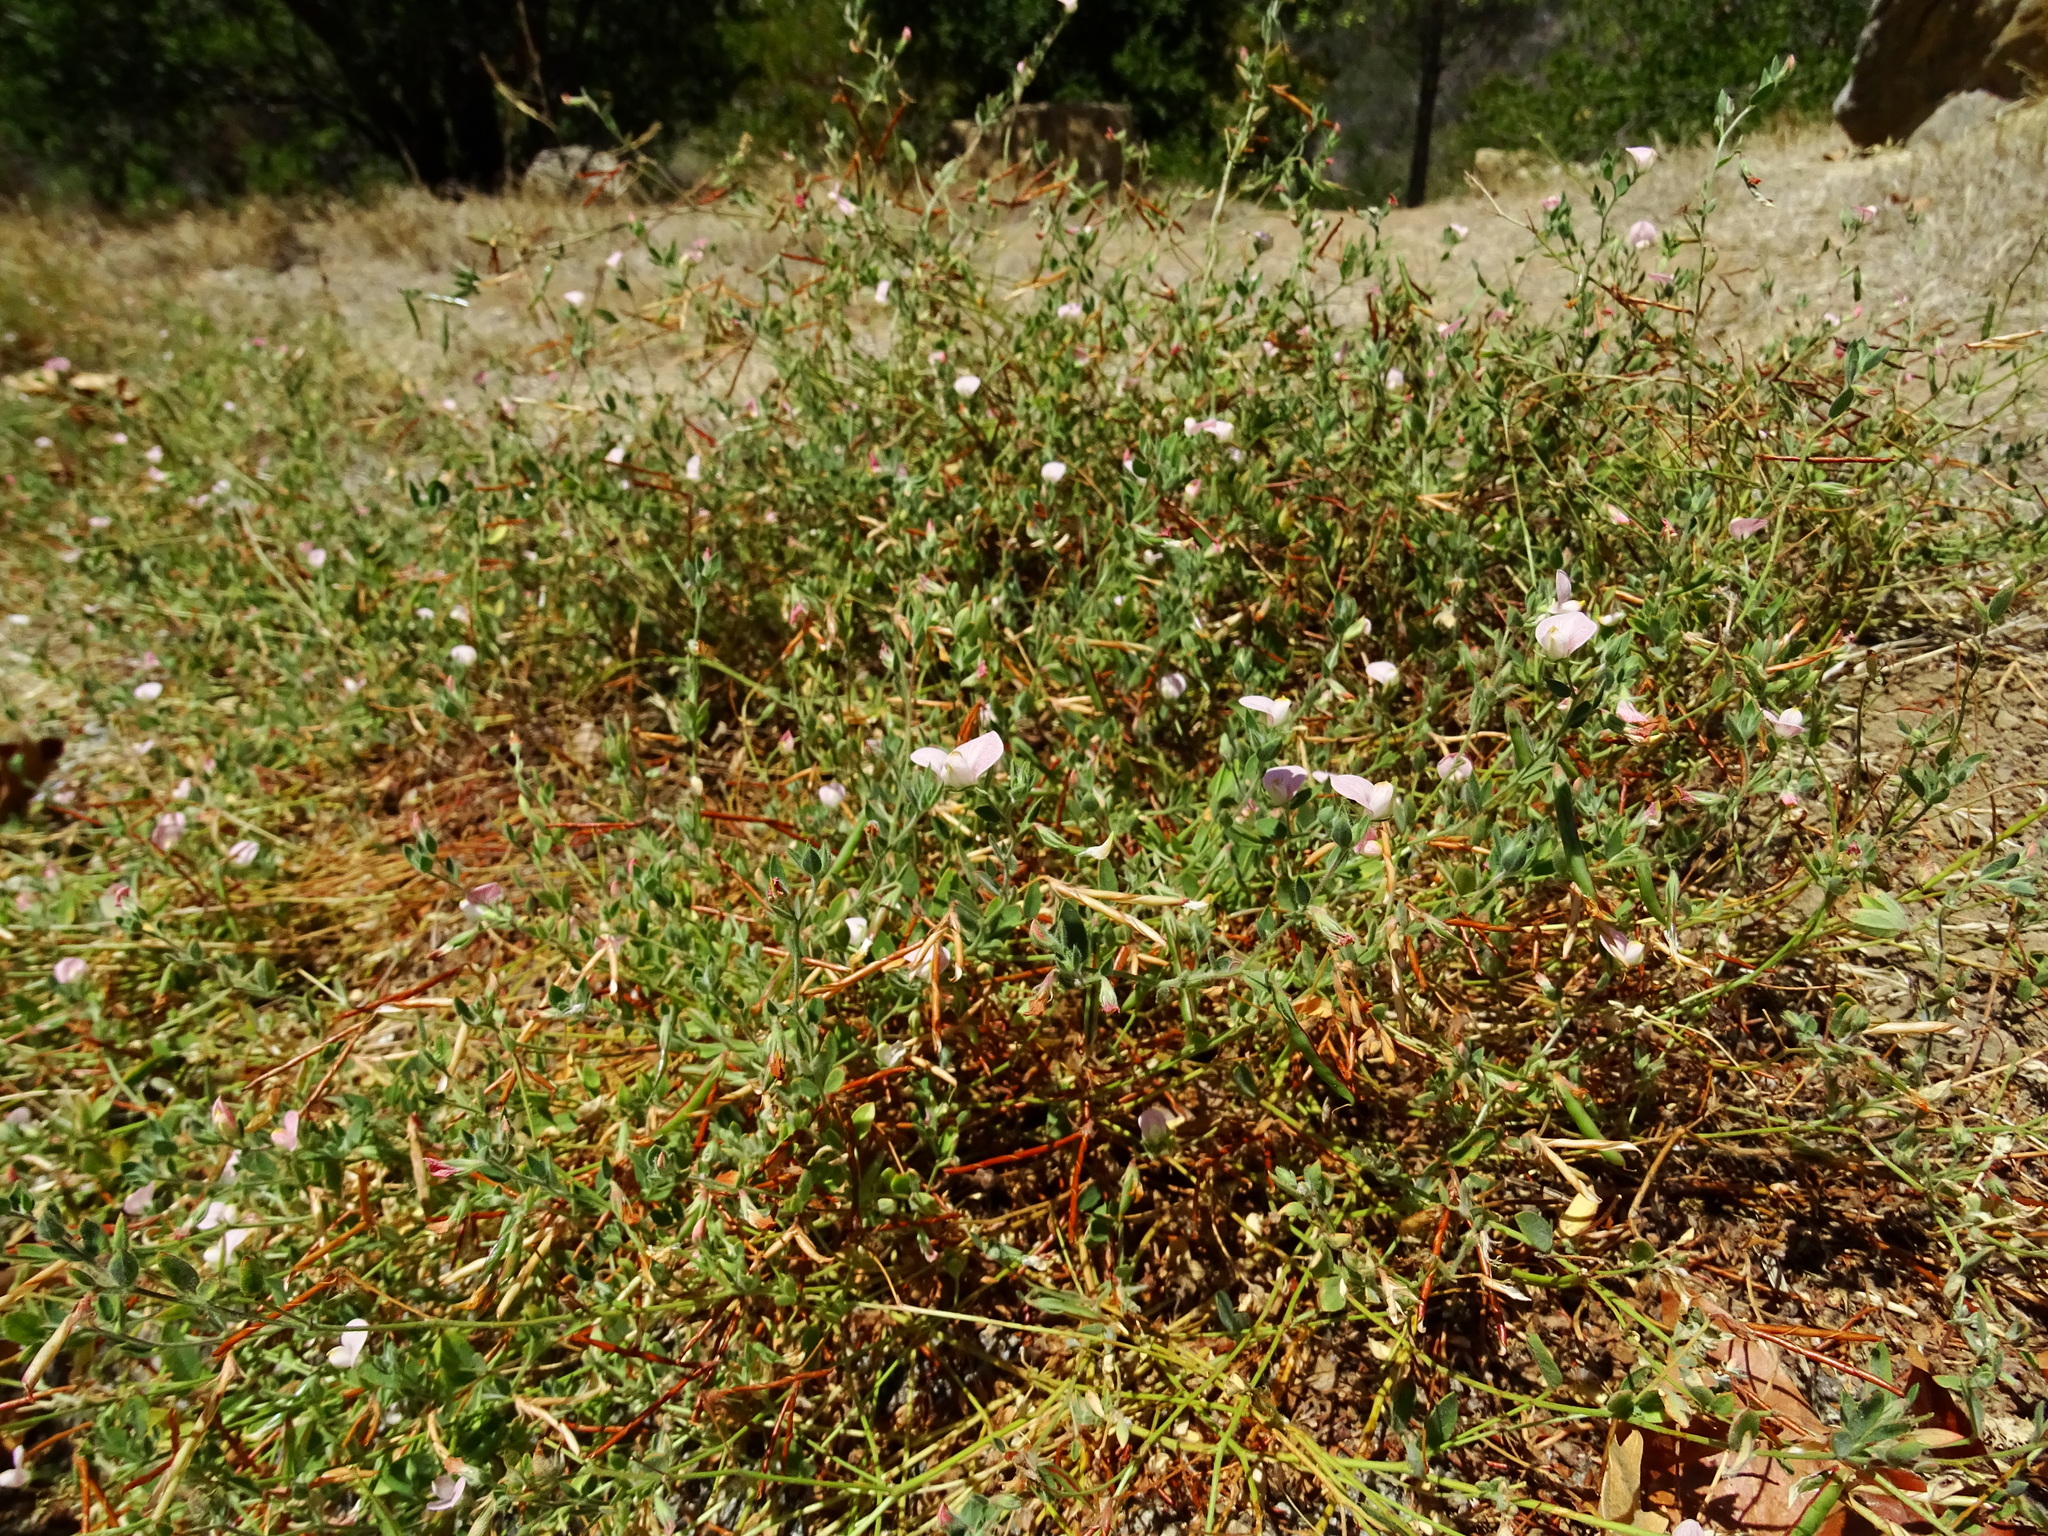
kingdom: Plantae
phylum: Tracheophyta
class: Magnoliopsida
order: Fabales
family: Fabaceae
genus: Acmispon
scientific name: Acmispon americanus
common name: American bird's-foot trefoil
